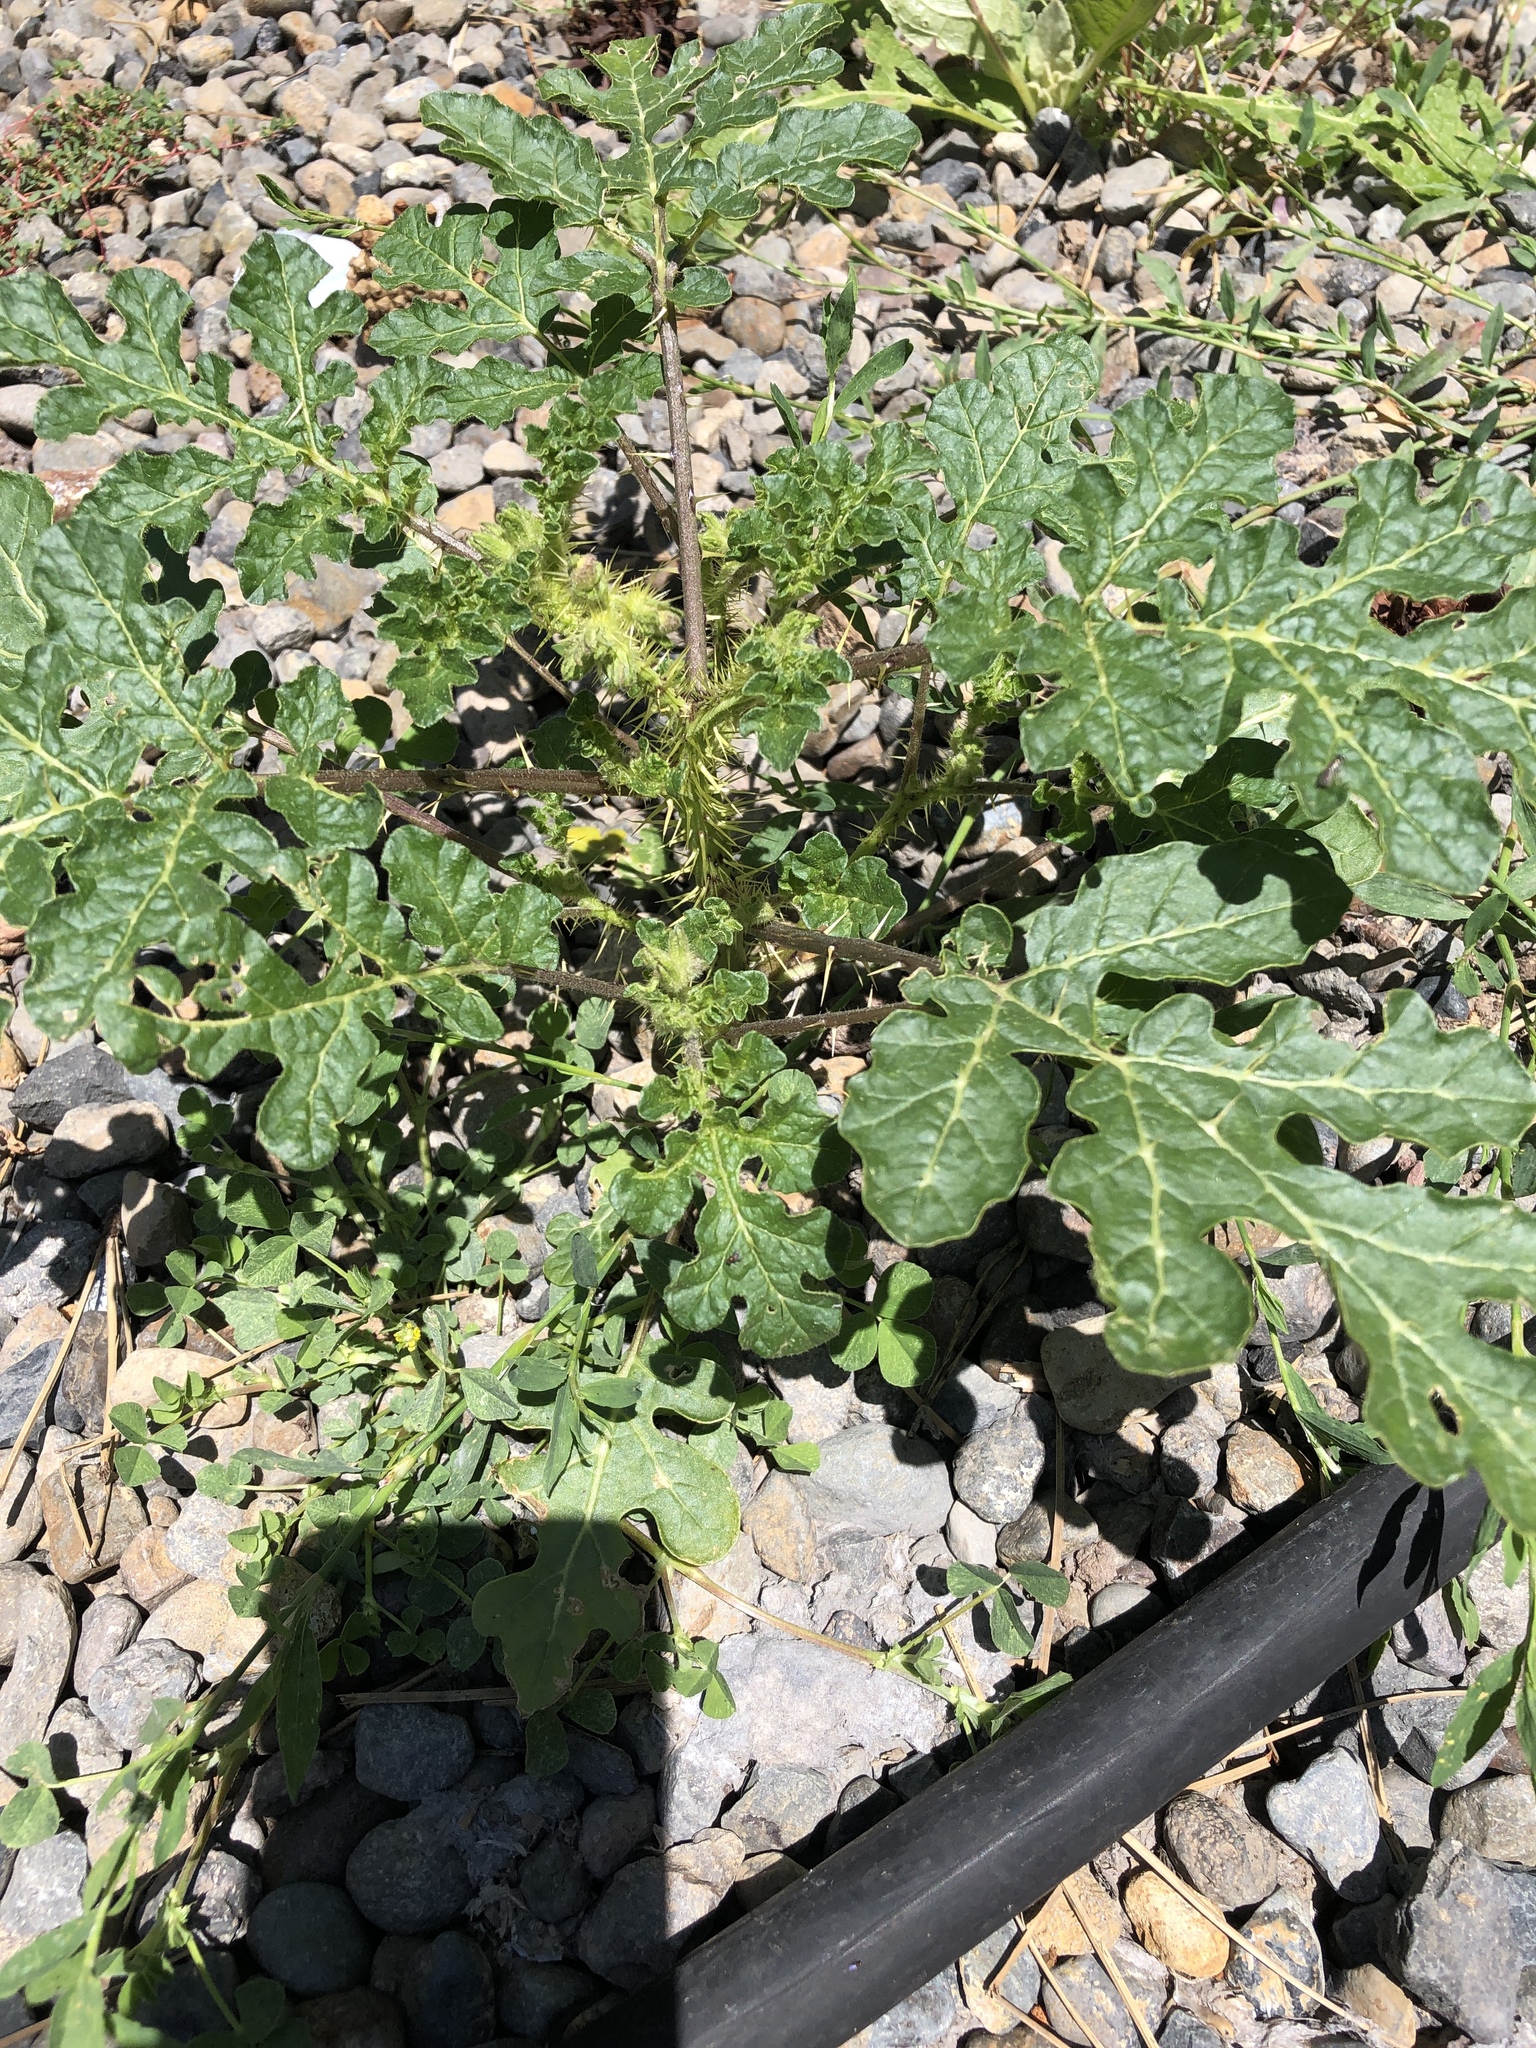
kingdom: Plantae
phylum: Tracheophyta
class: Magnoliopsida
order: Solanales
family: Solanaceae
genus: Solanum
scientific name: Solanum angustifolium
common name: Buffalobur nightshade
